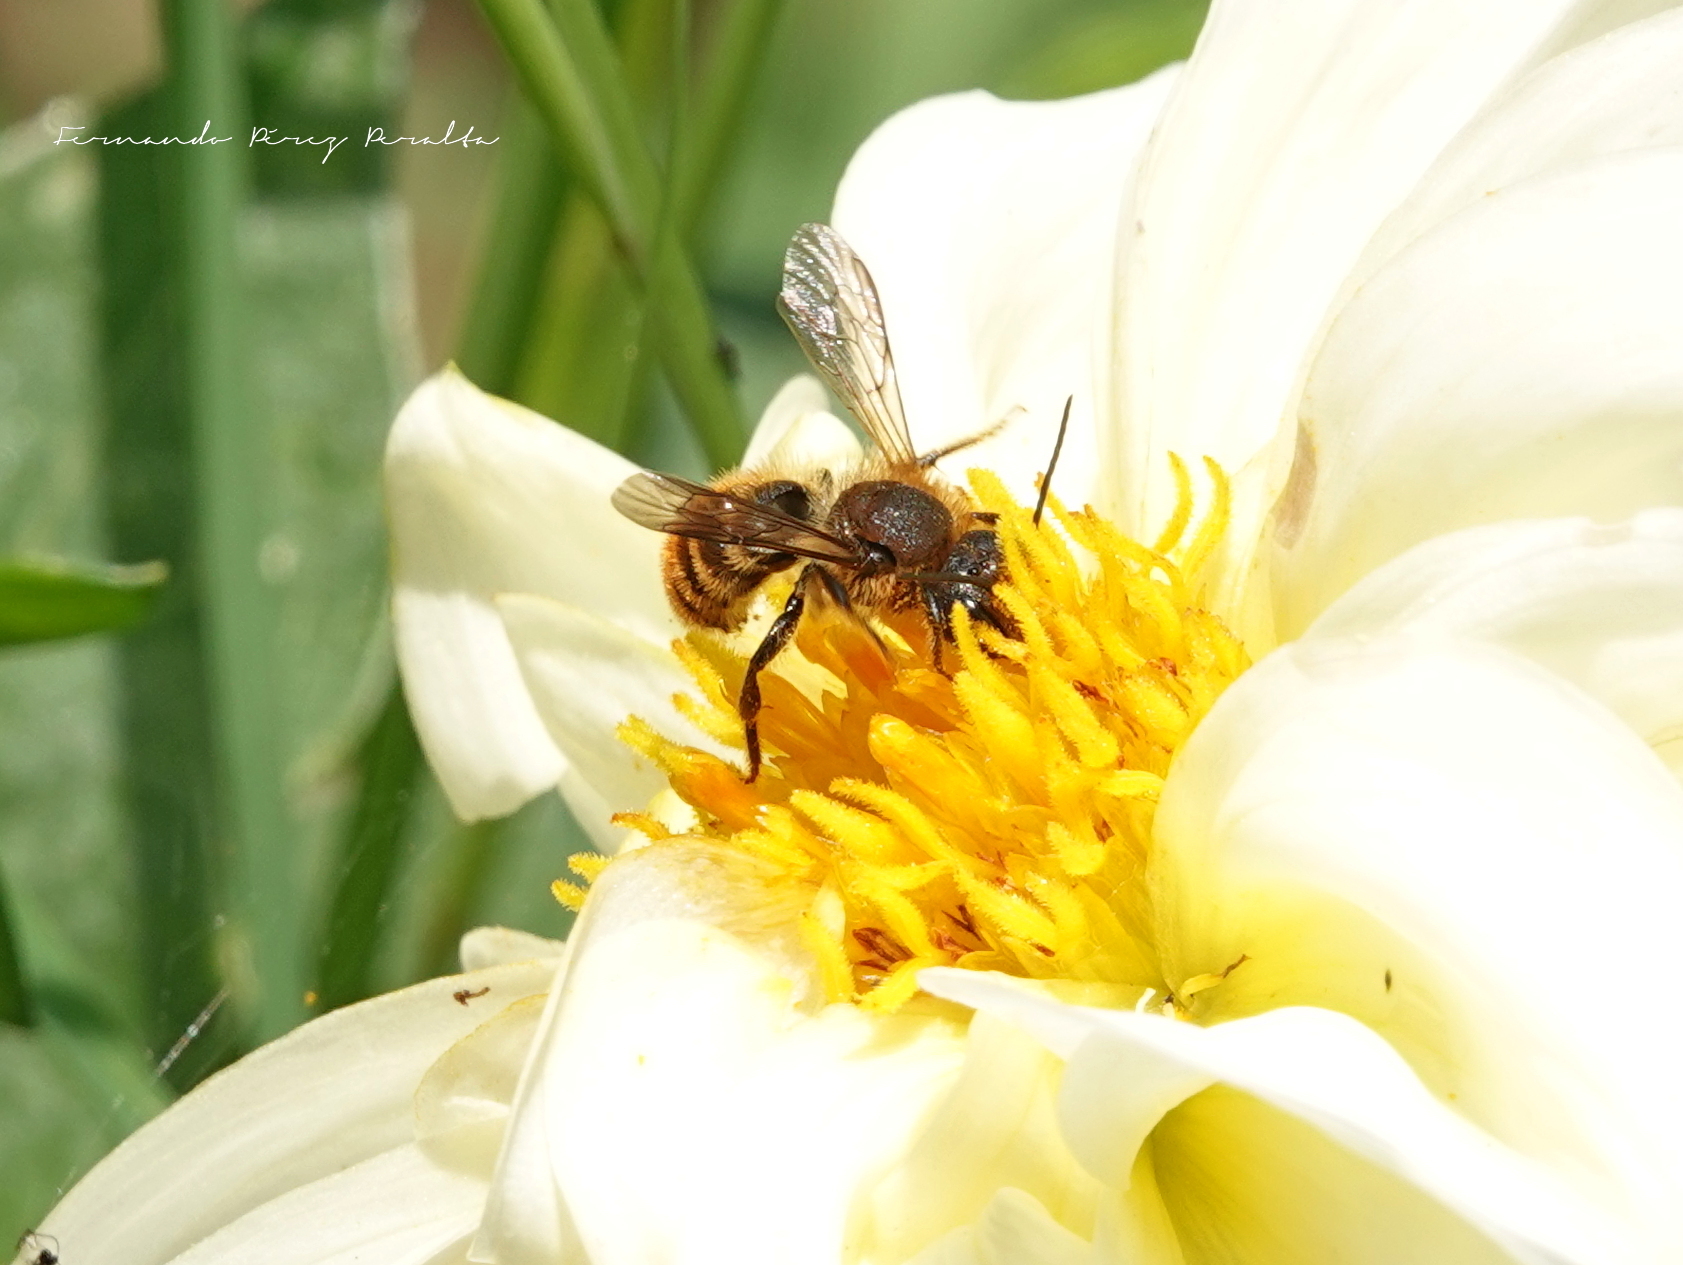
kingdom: Animalia
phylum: Arthropoda
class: Insecta
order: Hymenoptera
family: Megachilidae
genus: Osmia
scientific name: Osmia azteca
